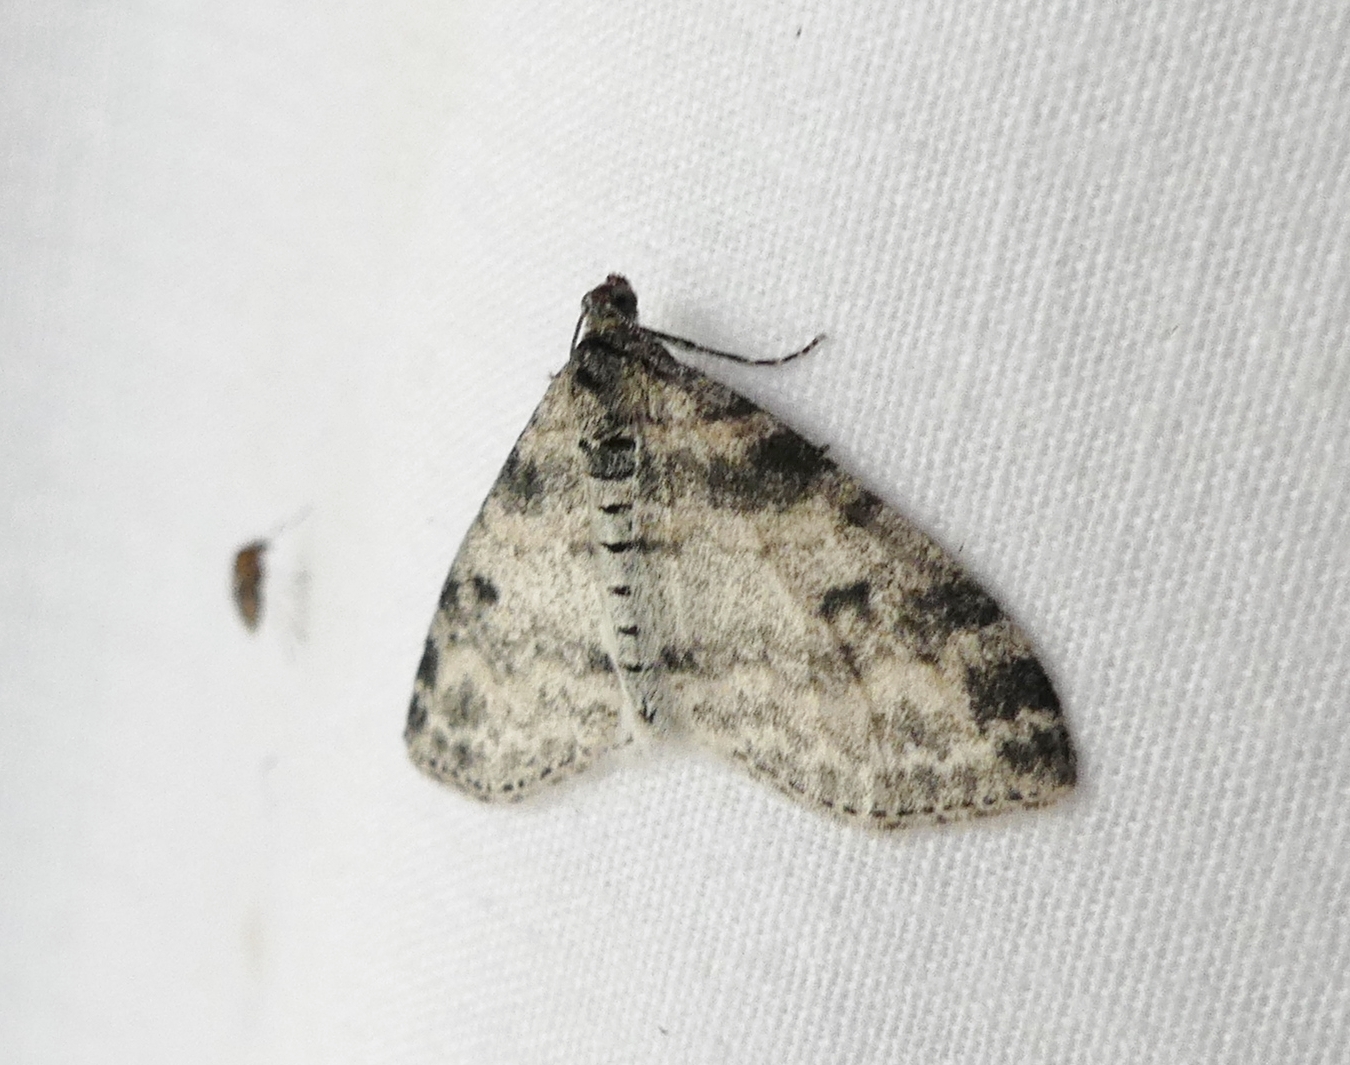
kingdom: Animalia
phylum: Arthropoda
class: Insecta
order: Lepidoptera
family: Geometridae
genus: Lobophora
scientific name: Lobophora nivigerata
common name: Powdered bigwing
